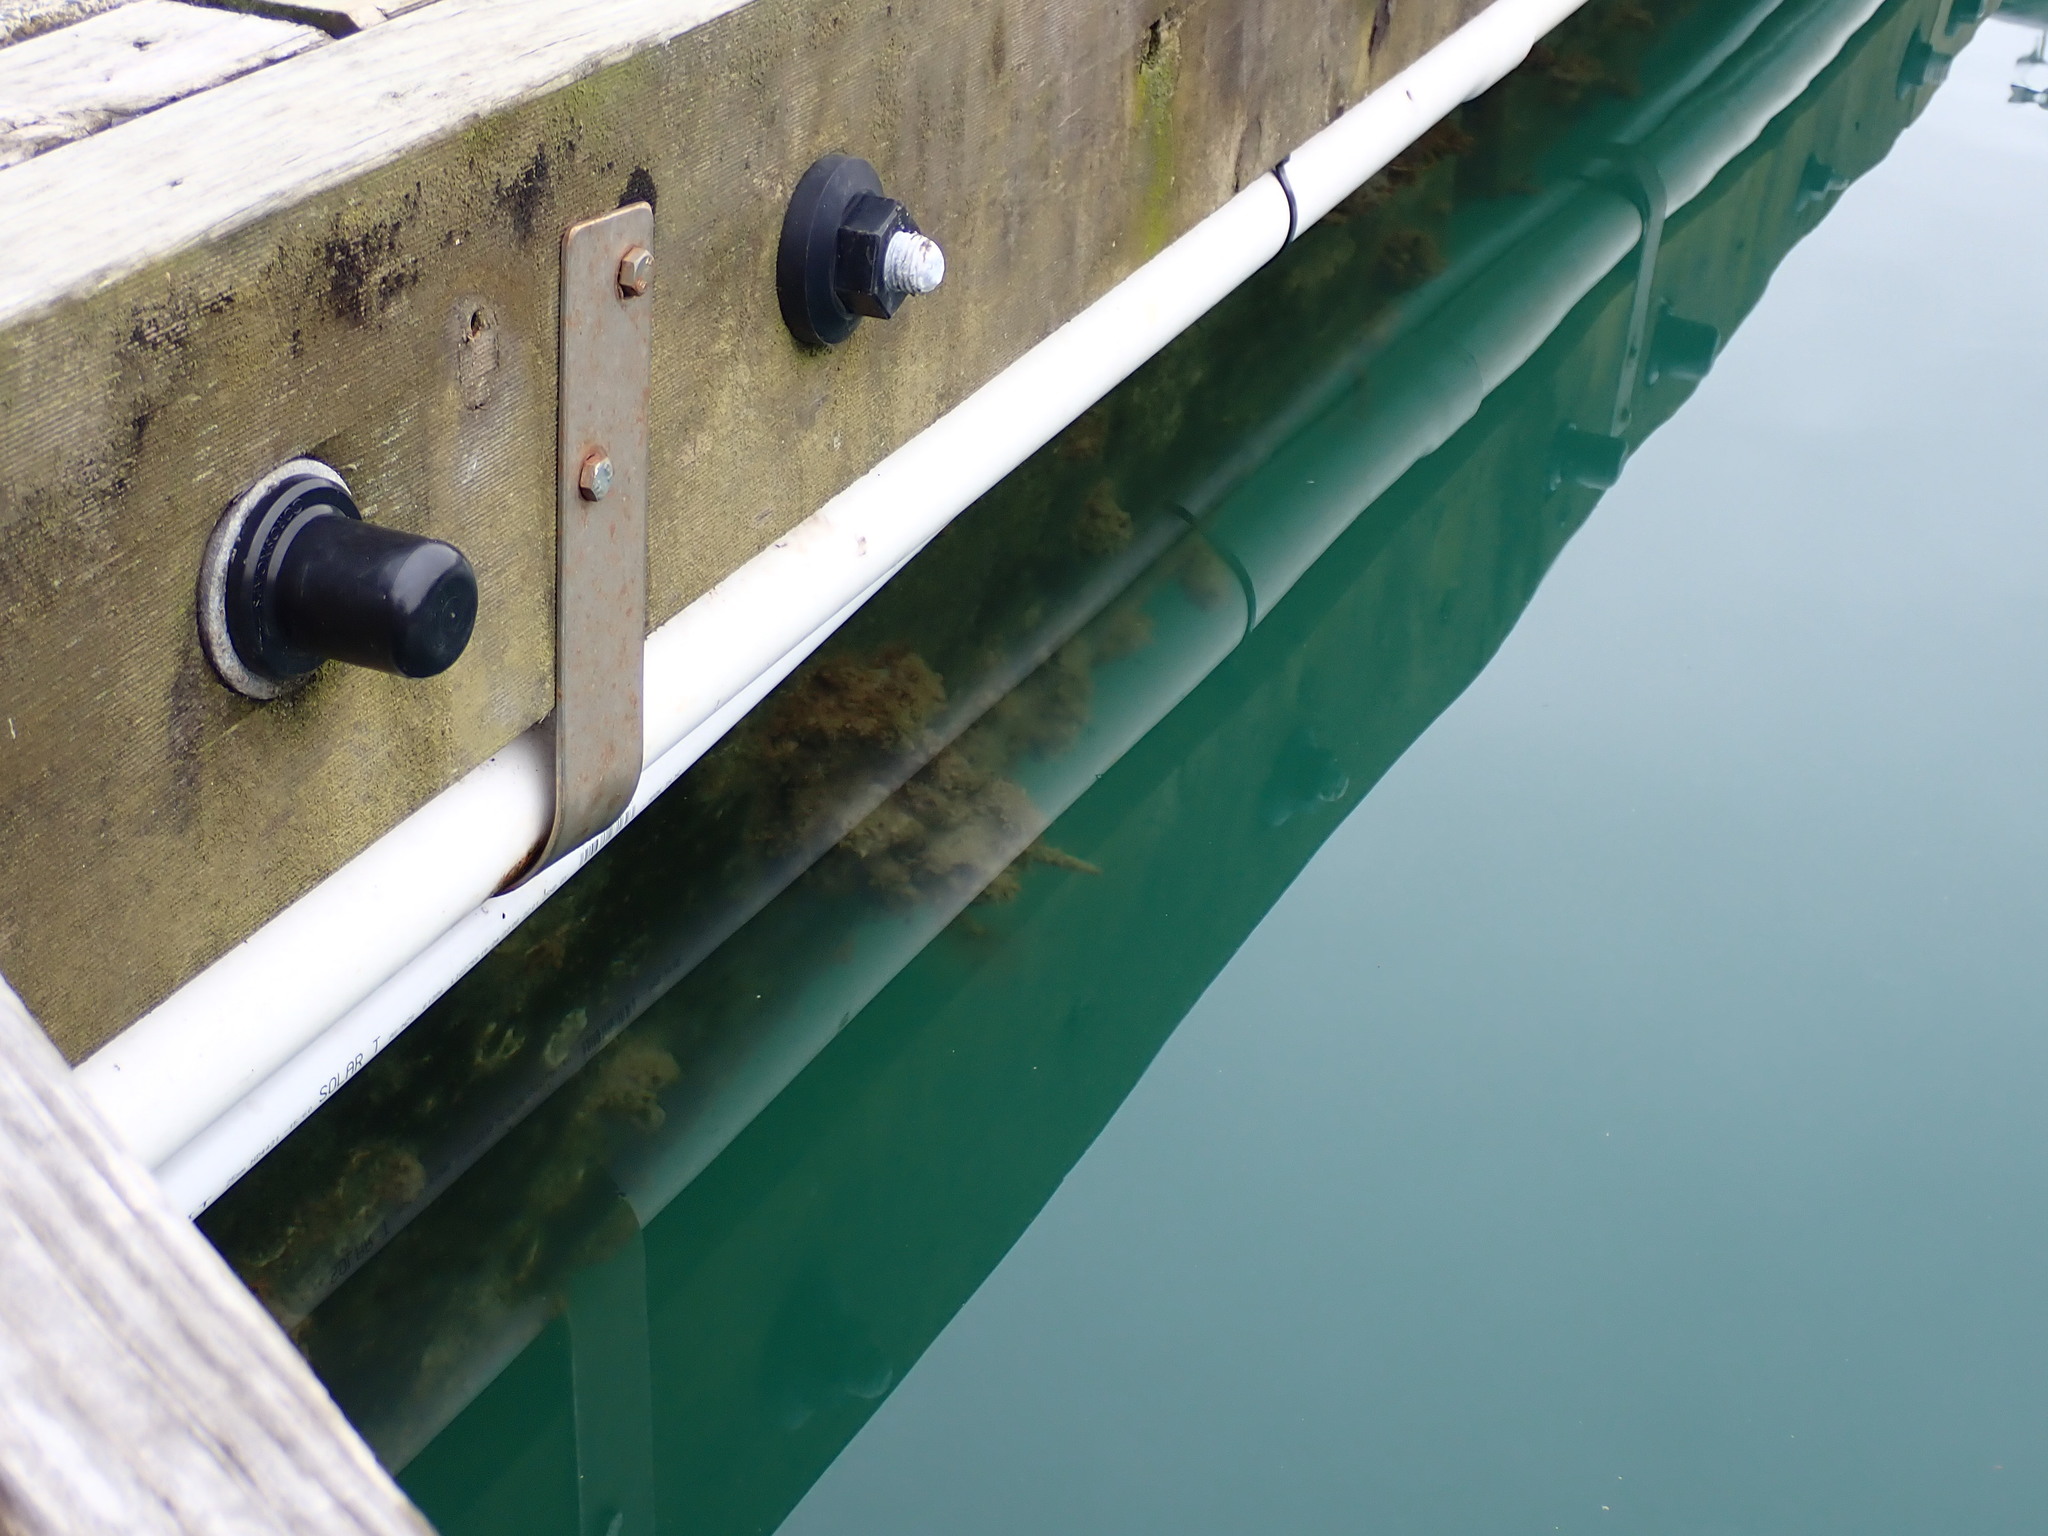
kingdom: Animalia
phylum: Annelida
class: Polychaeta
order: Sabellida
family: Sabellidae
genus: Sabella
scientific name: Sabella spallanzanii
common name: Feather duster worm
